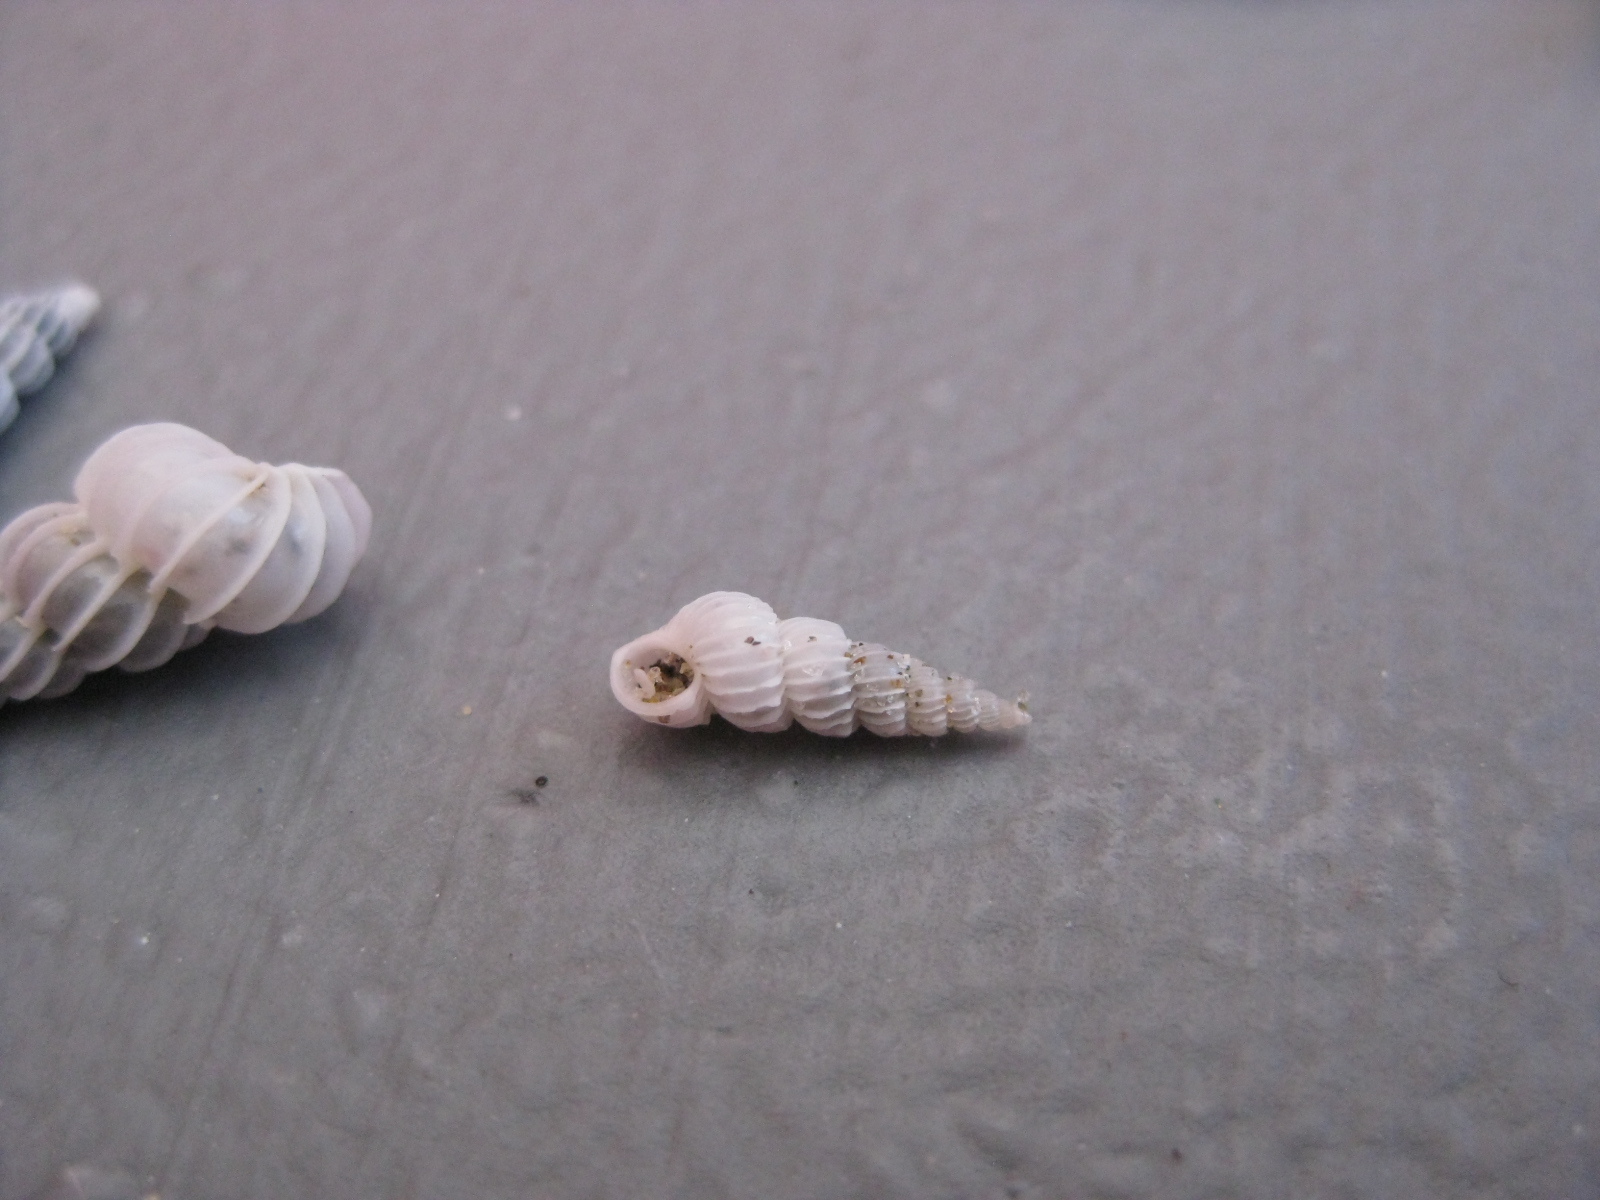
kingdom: Animalia
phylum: Mollusca
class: Gastropoda
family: Epitoniidae
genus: Epitonium
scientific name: Epitonium jukesianum
